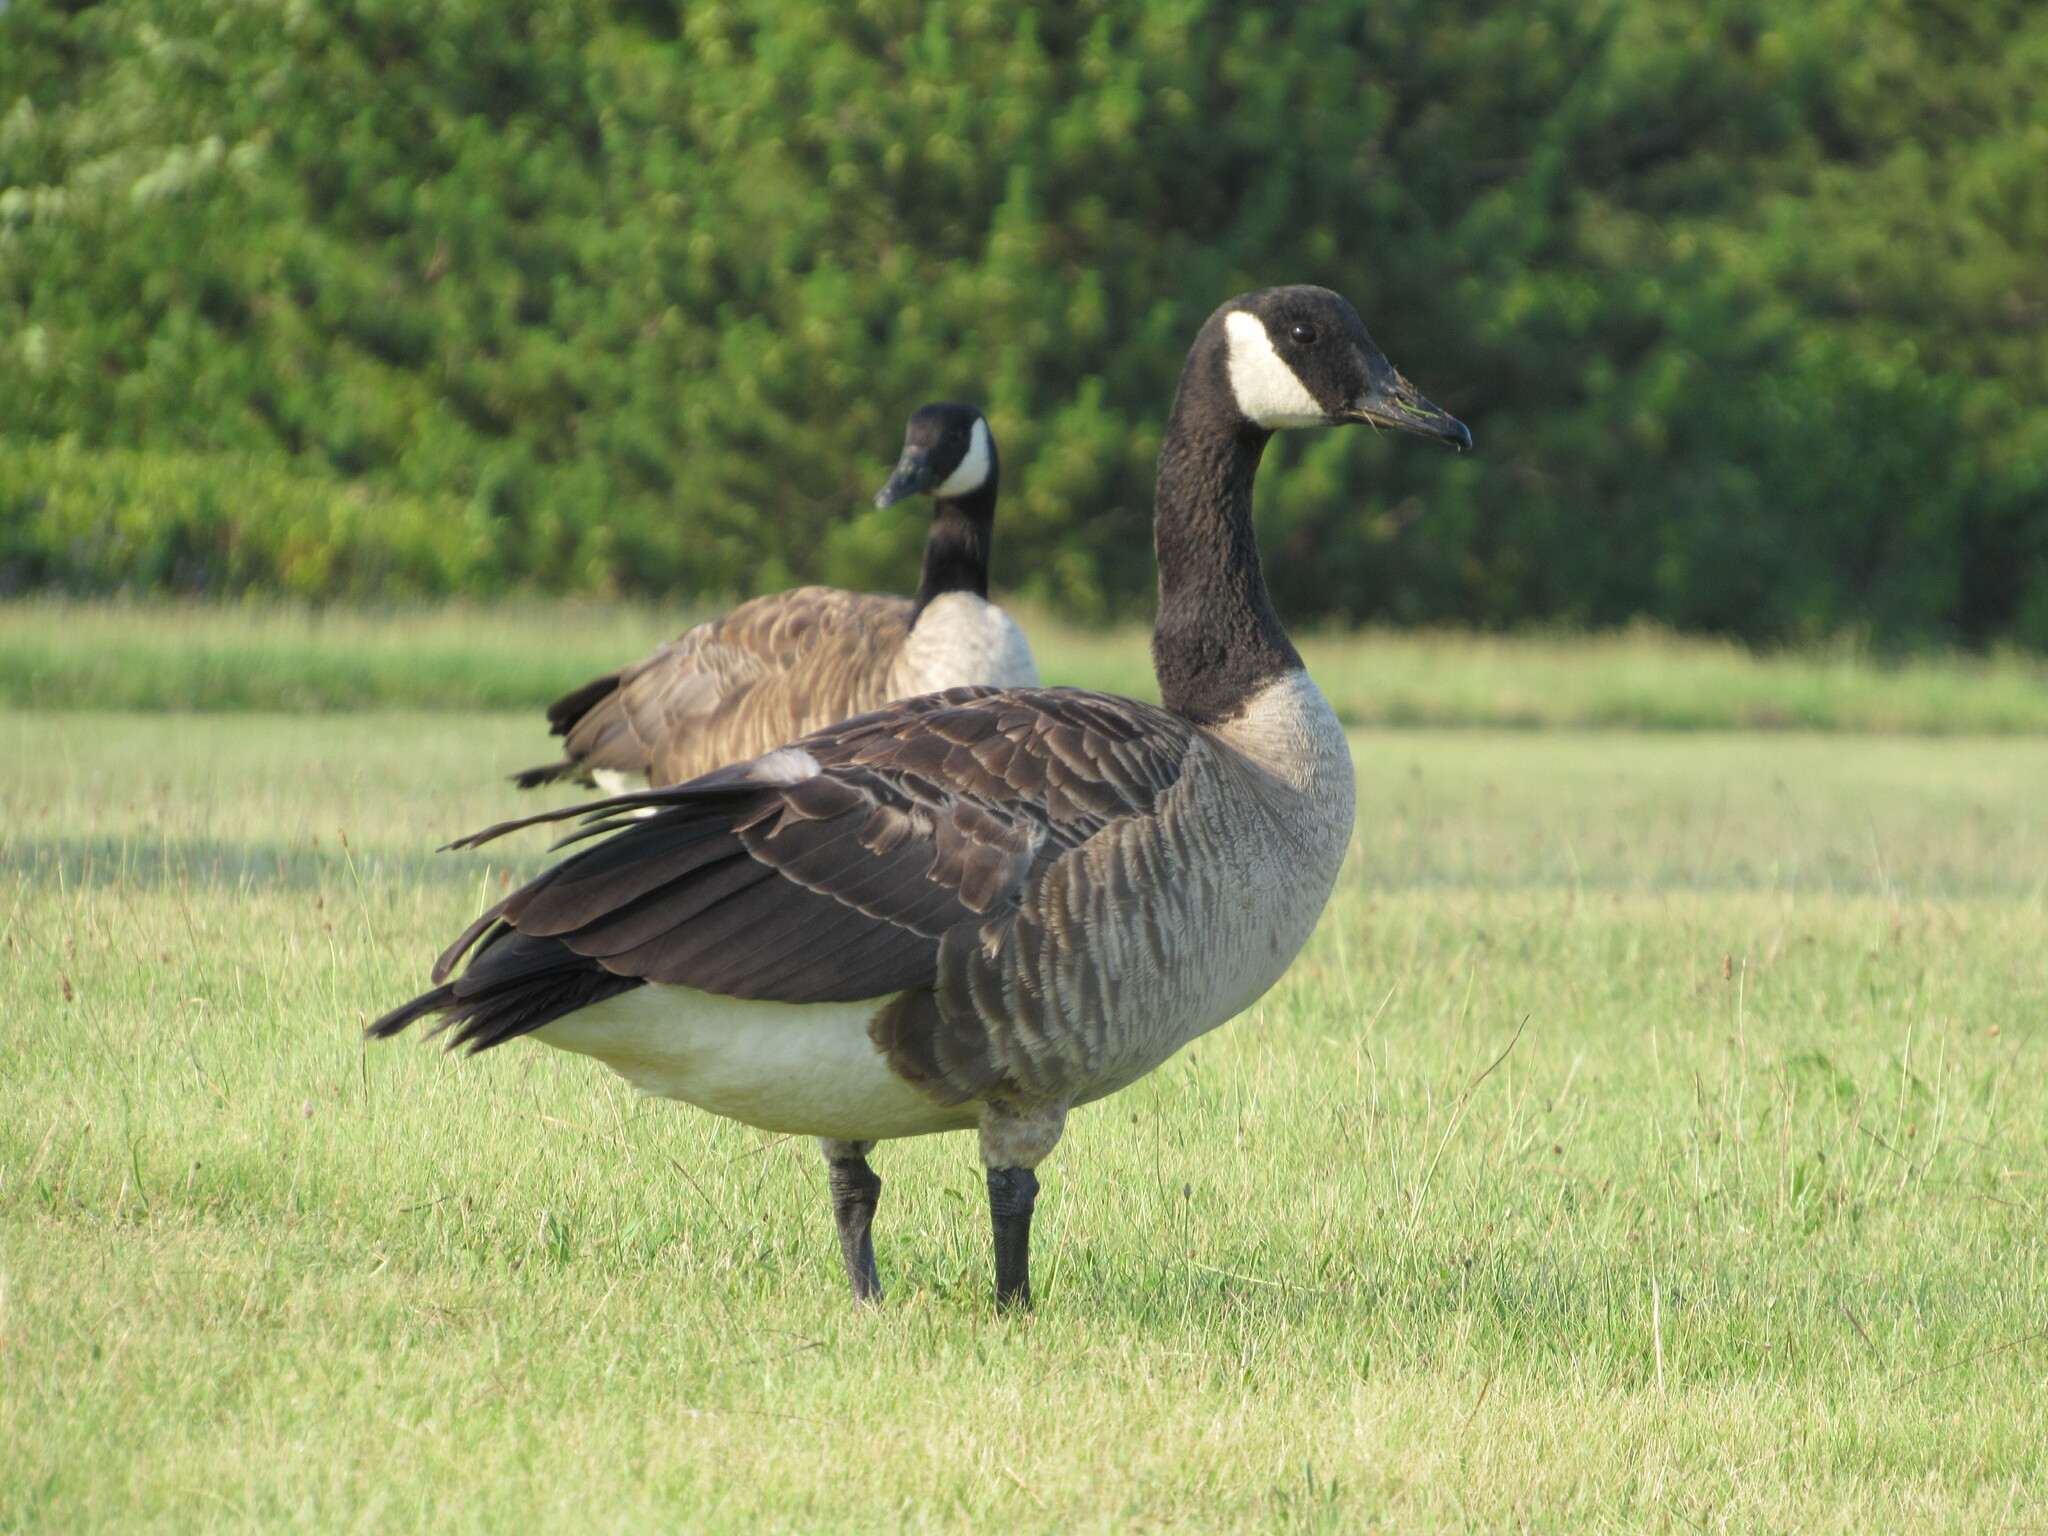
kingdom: Animalia
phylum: Chordata
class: Aves
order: Anseriformes
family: Anatidae
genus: Branta
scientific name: Branta canadensis
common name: Canada goose
